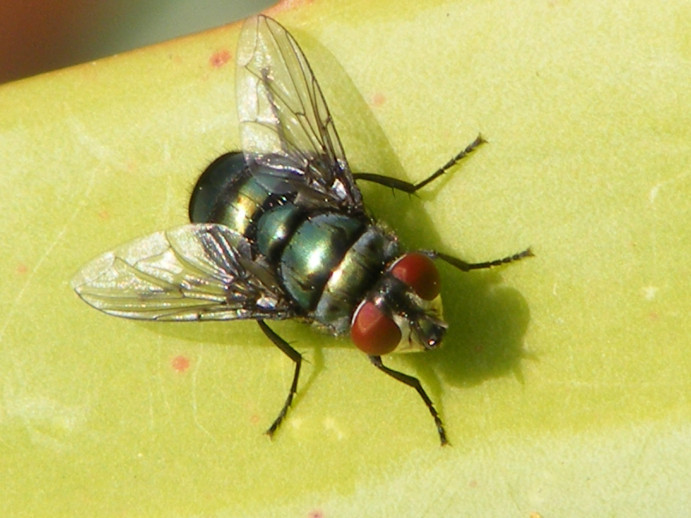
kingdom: Animalia
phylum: Arthropoda
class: Insecta
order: Diptera
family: Calliphoridae
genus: Chrysomya
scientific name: Chrysomya putoria
